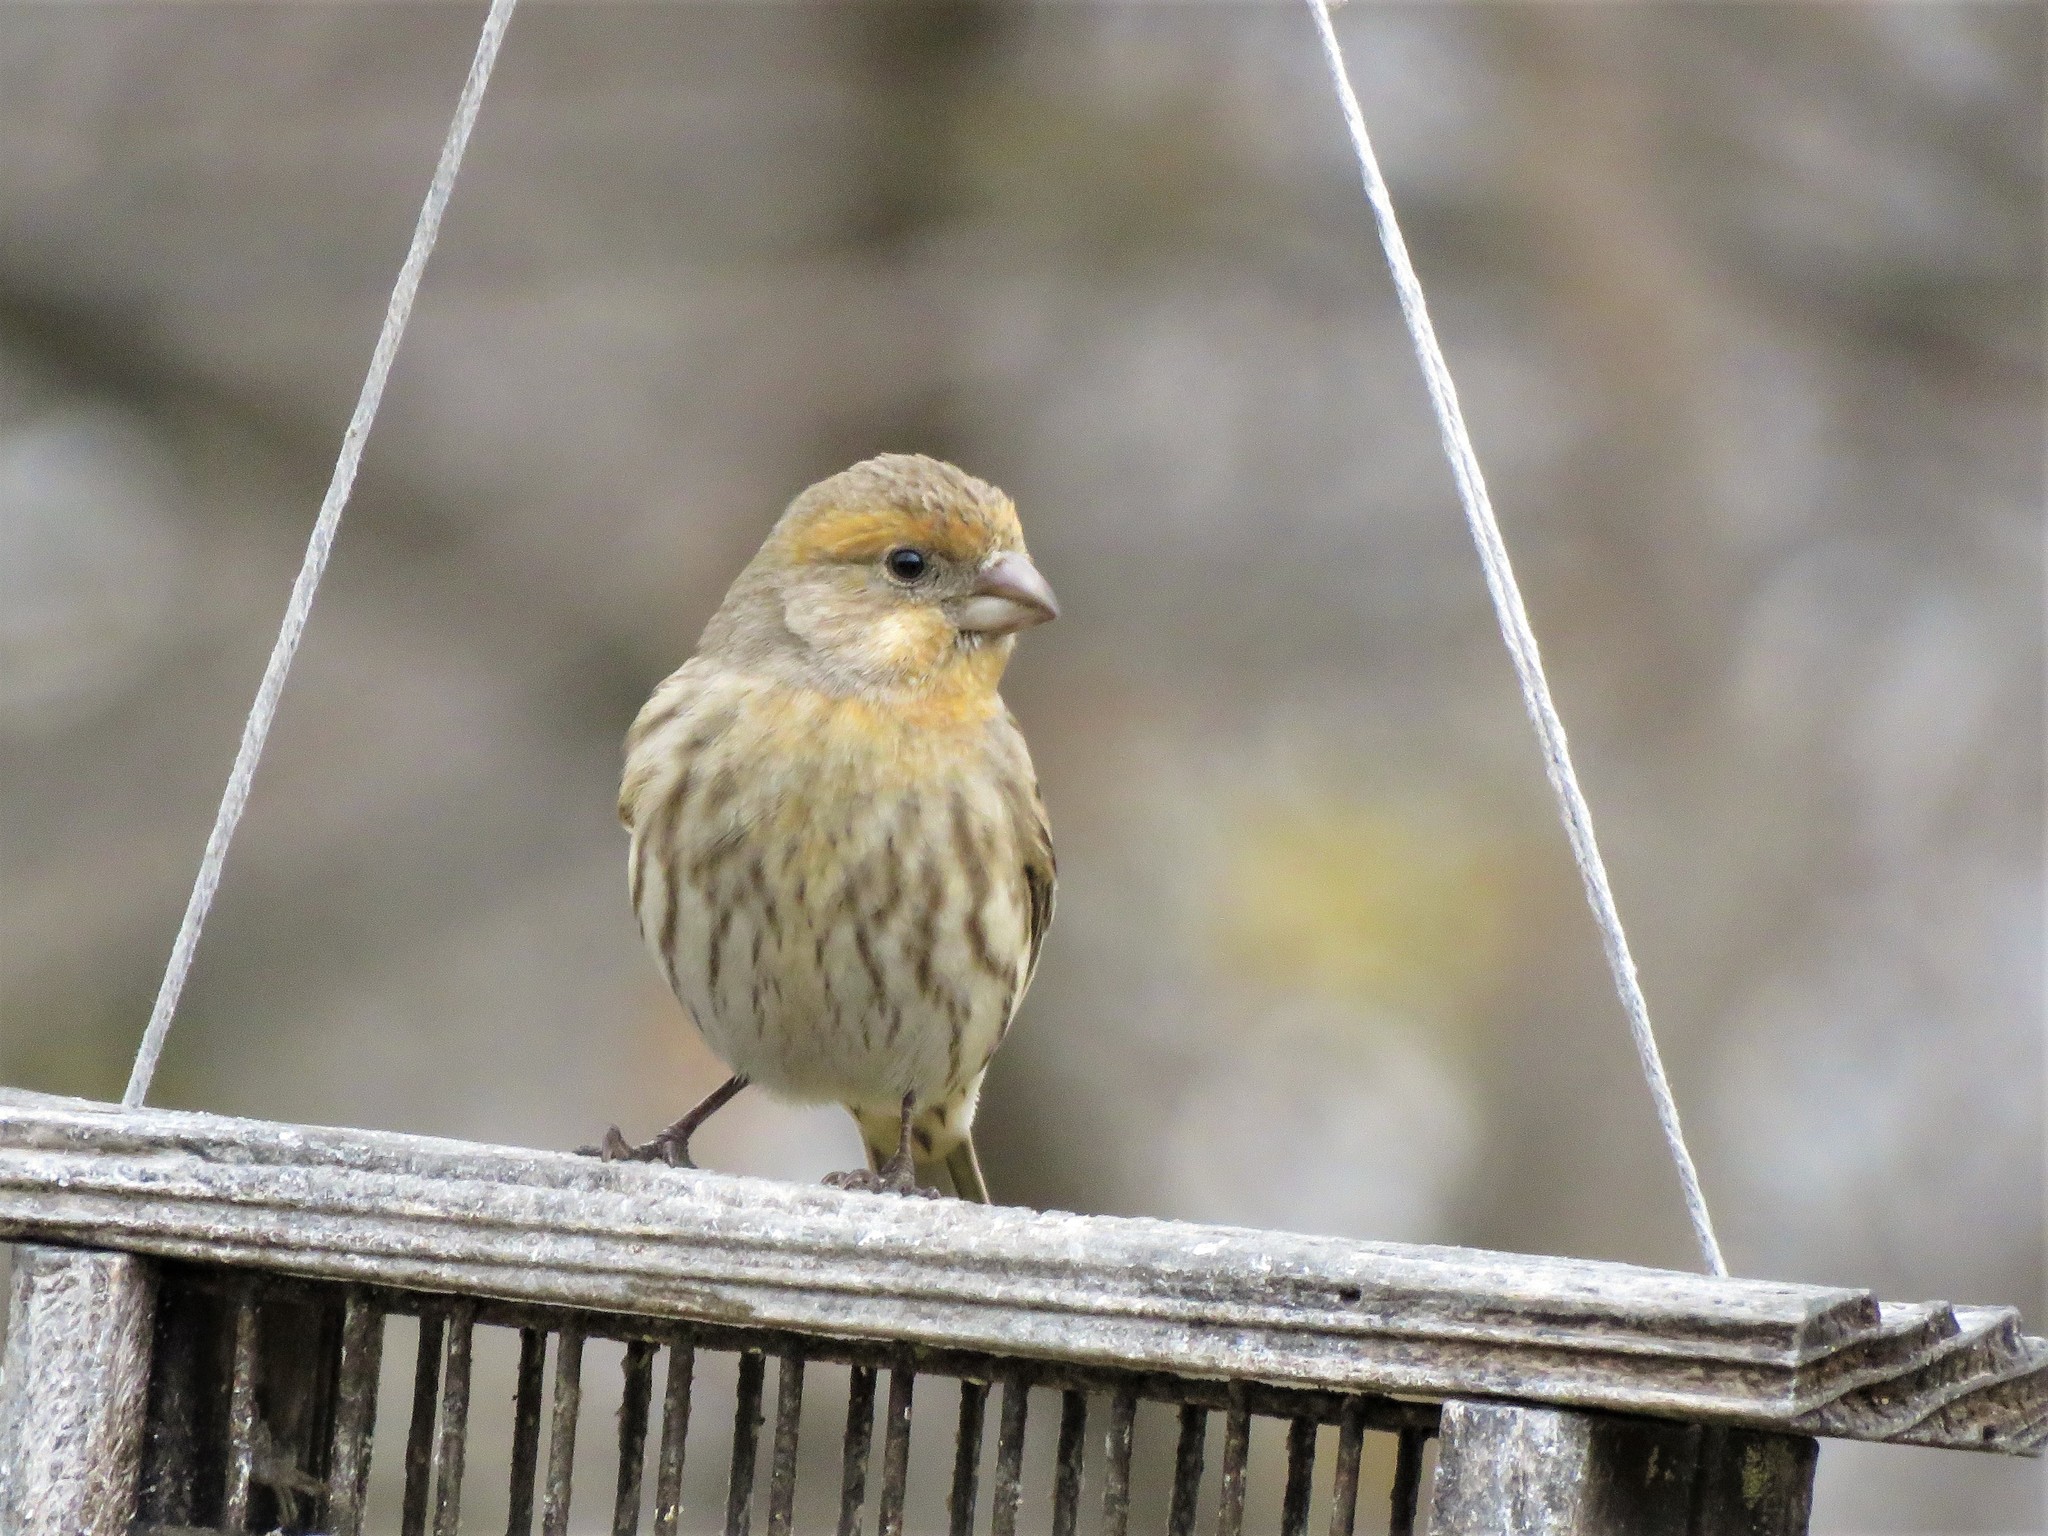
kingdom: Animalia
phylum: Chordata
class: Aves
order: Passeriformes
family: Fringillidae
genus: Haemorhous
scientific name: Haemorhous mexicanus
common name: House finch
